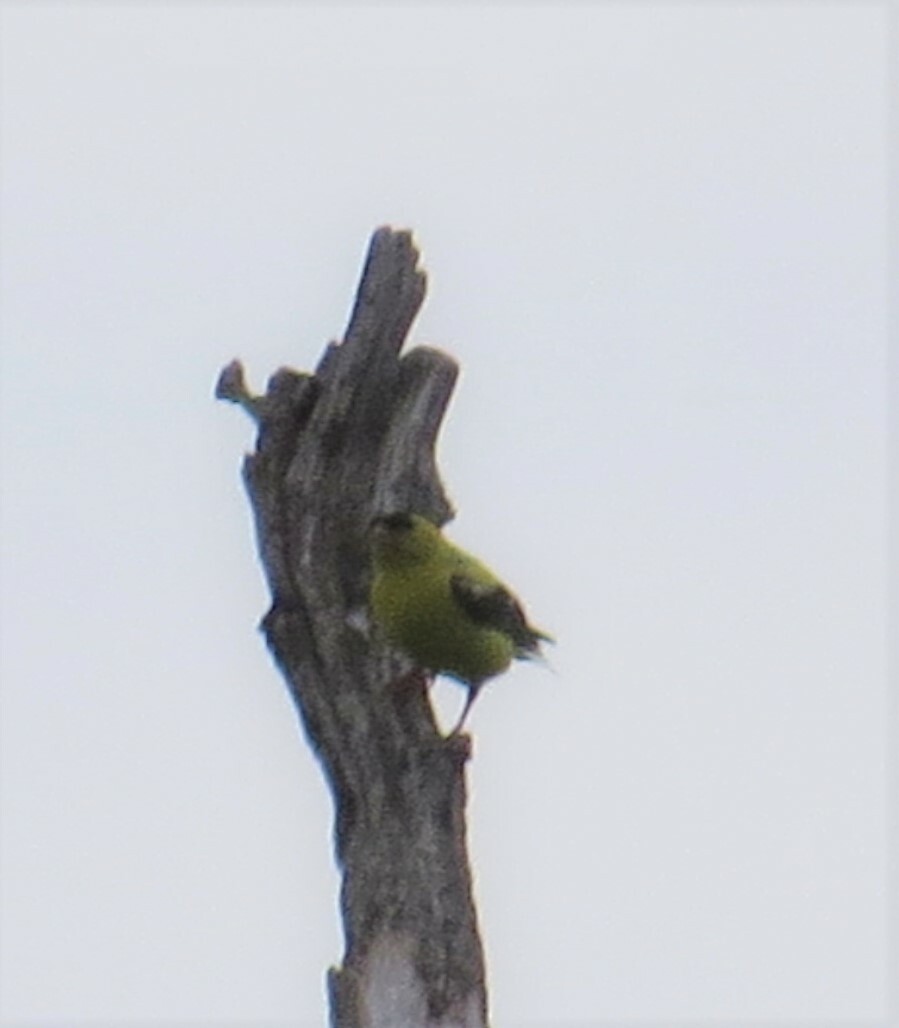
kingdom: Animalia
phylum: Chordata
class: Aves
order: Passeriformes
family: Fringillidae
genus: Spinus
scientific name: Spinus tristis
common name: American goldfinch
